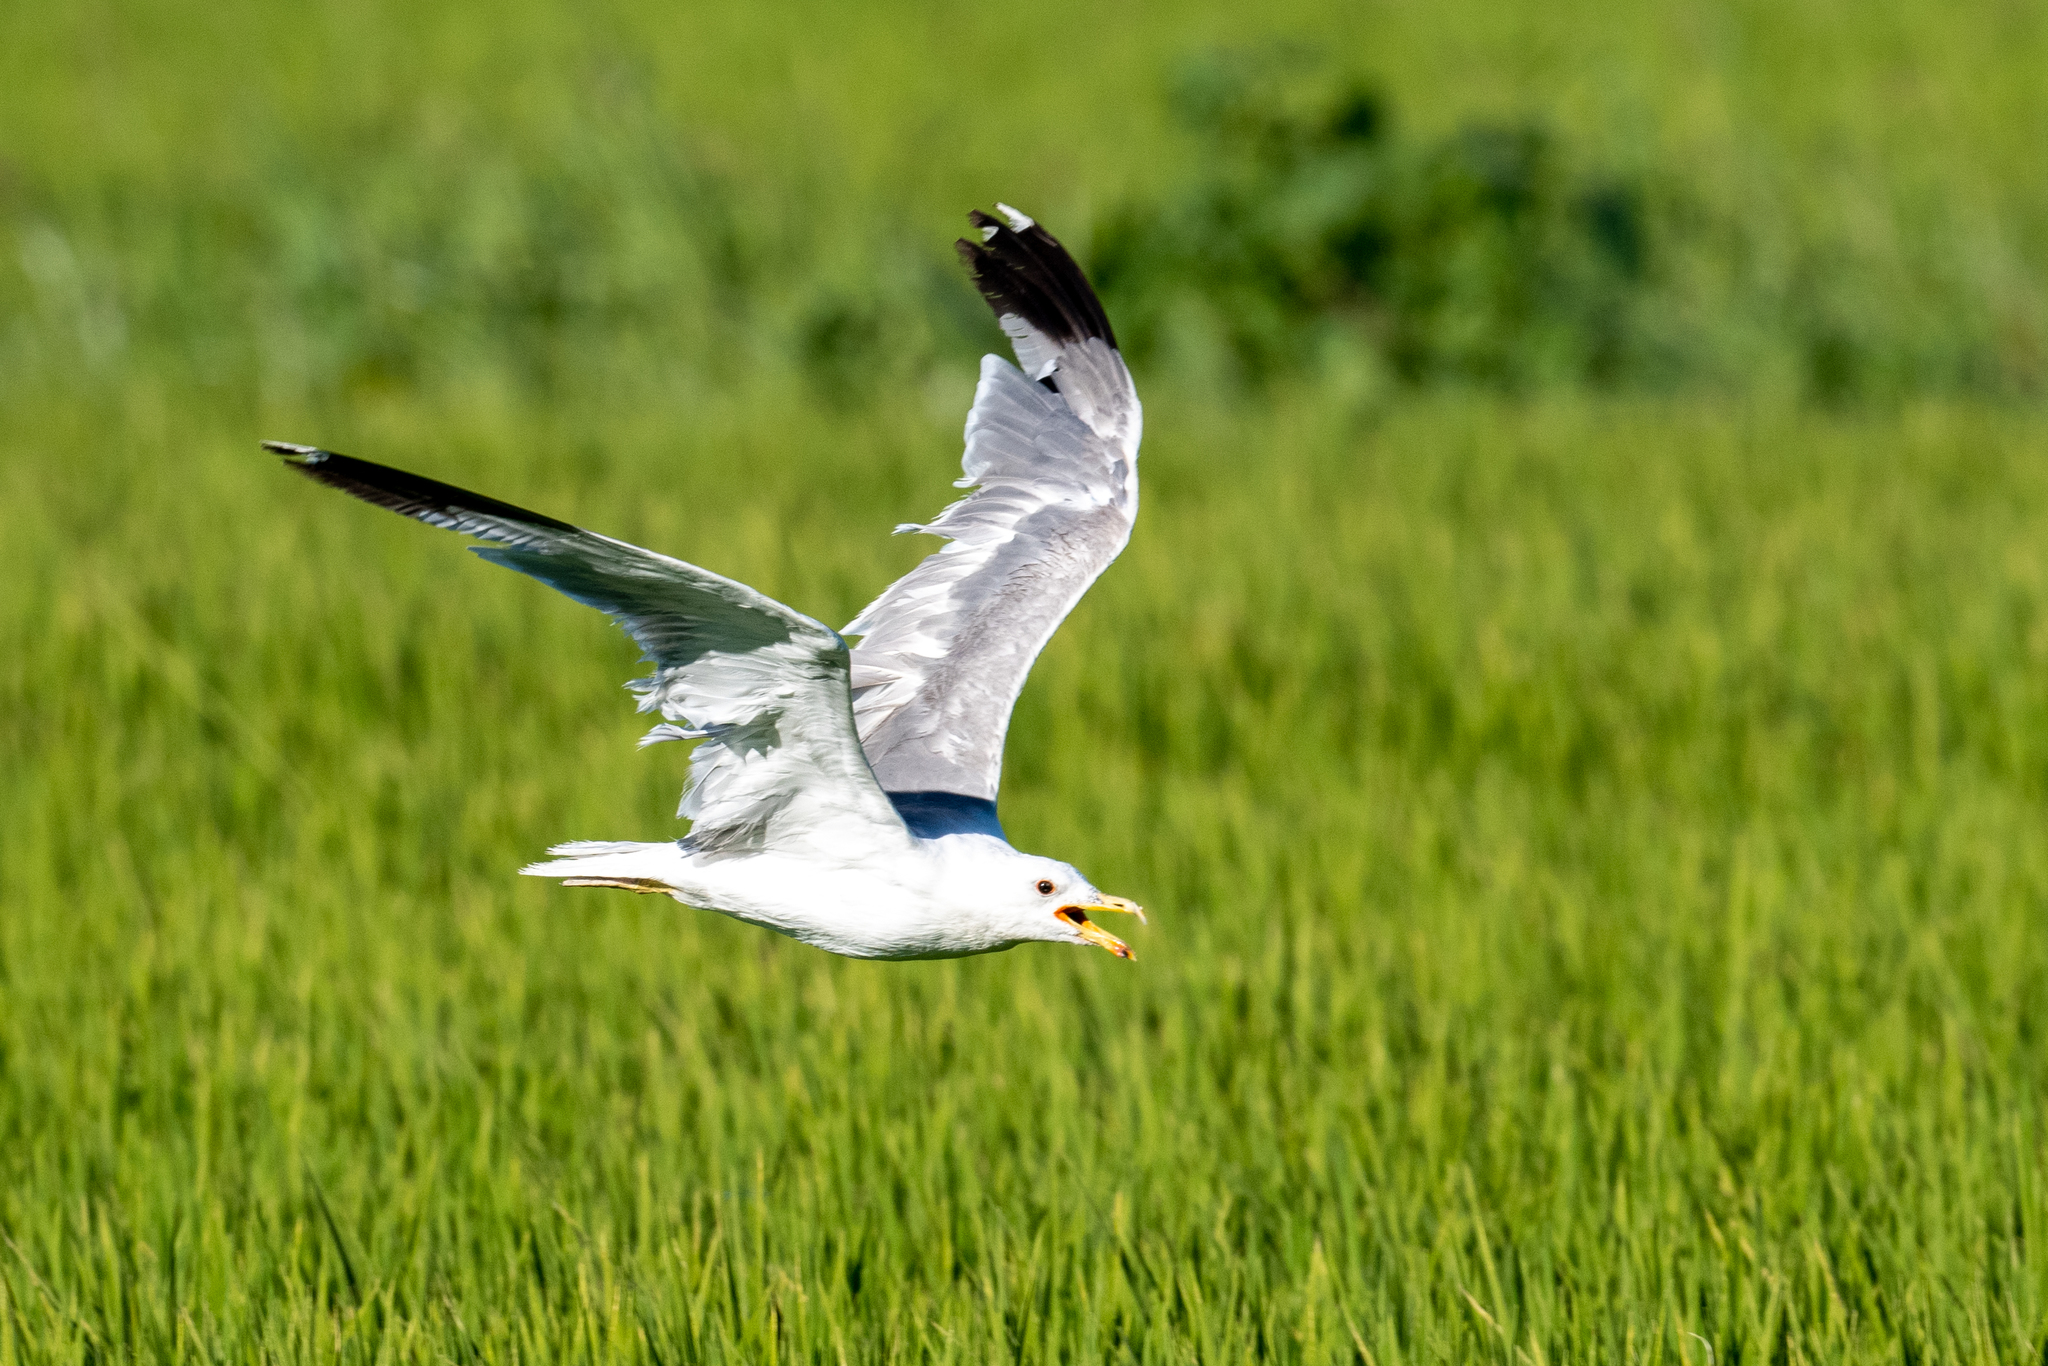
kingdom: Animalia
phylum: Chordata
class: Aves
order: Charadriiformes
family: Laridae
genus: Larus
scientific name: Larus californicus
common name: California gull
